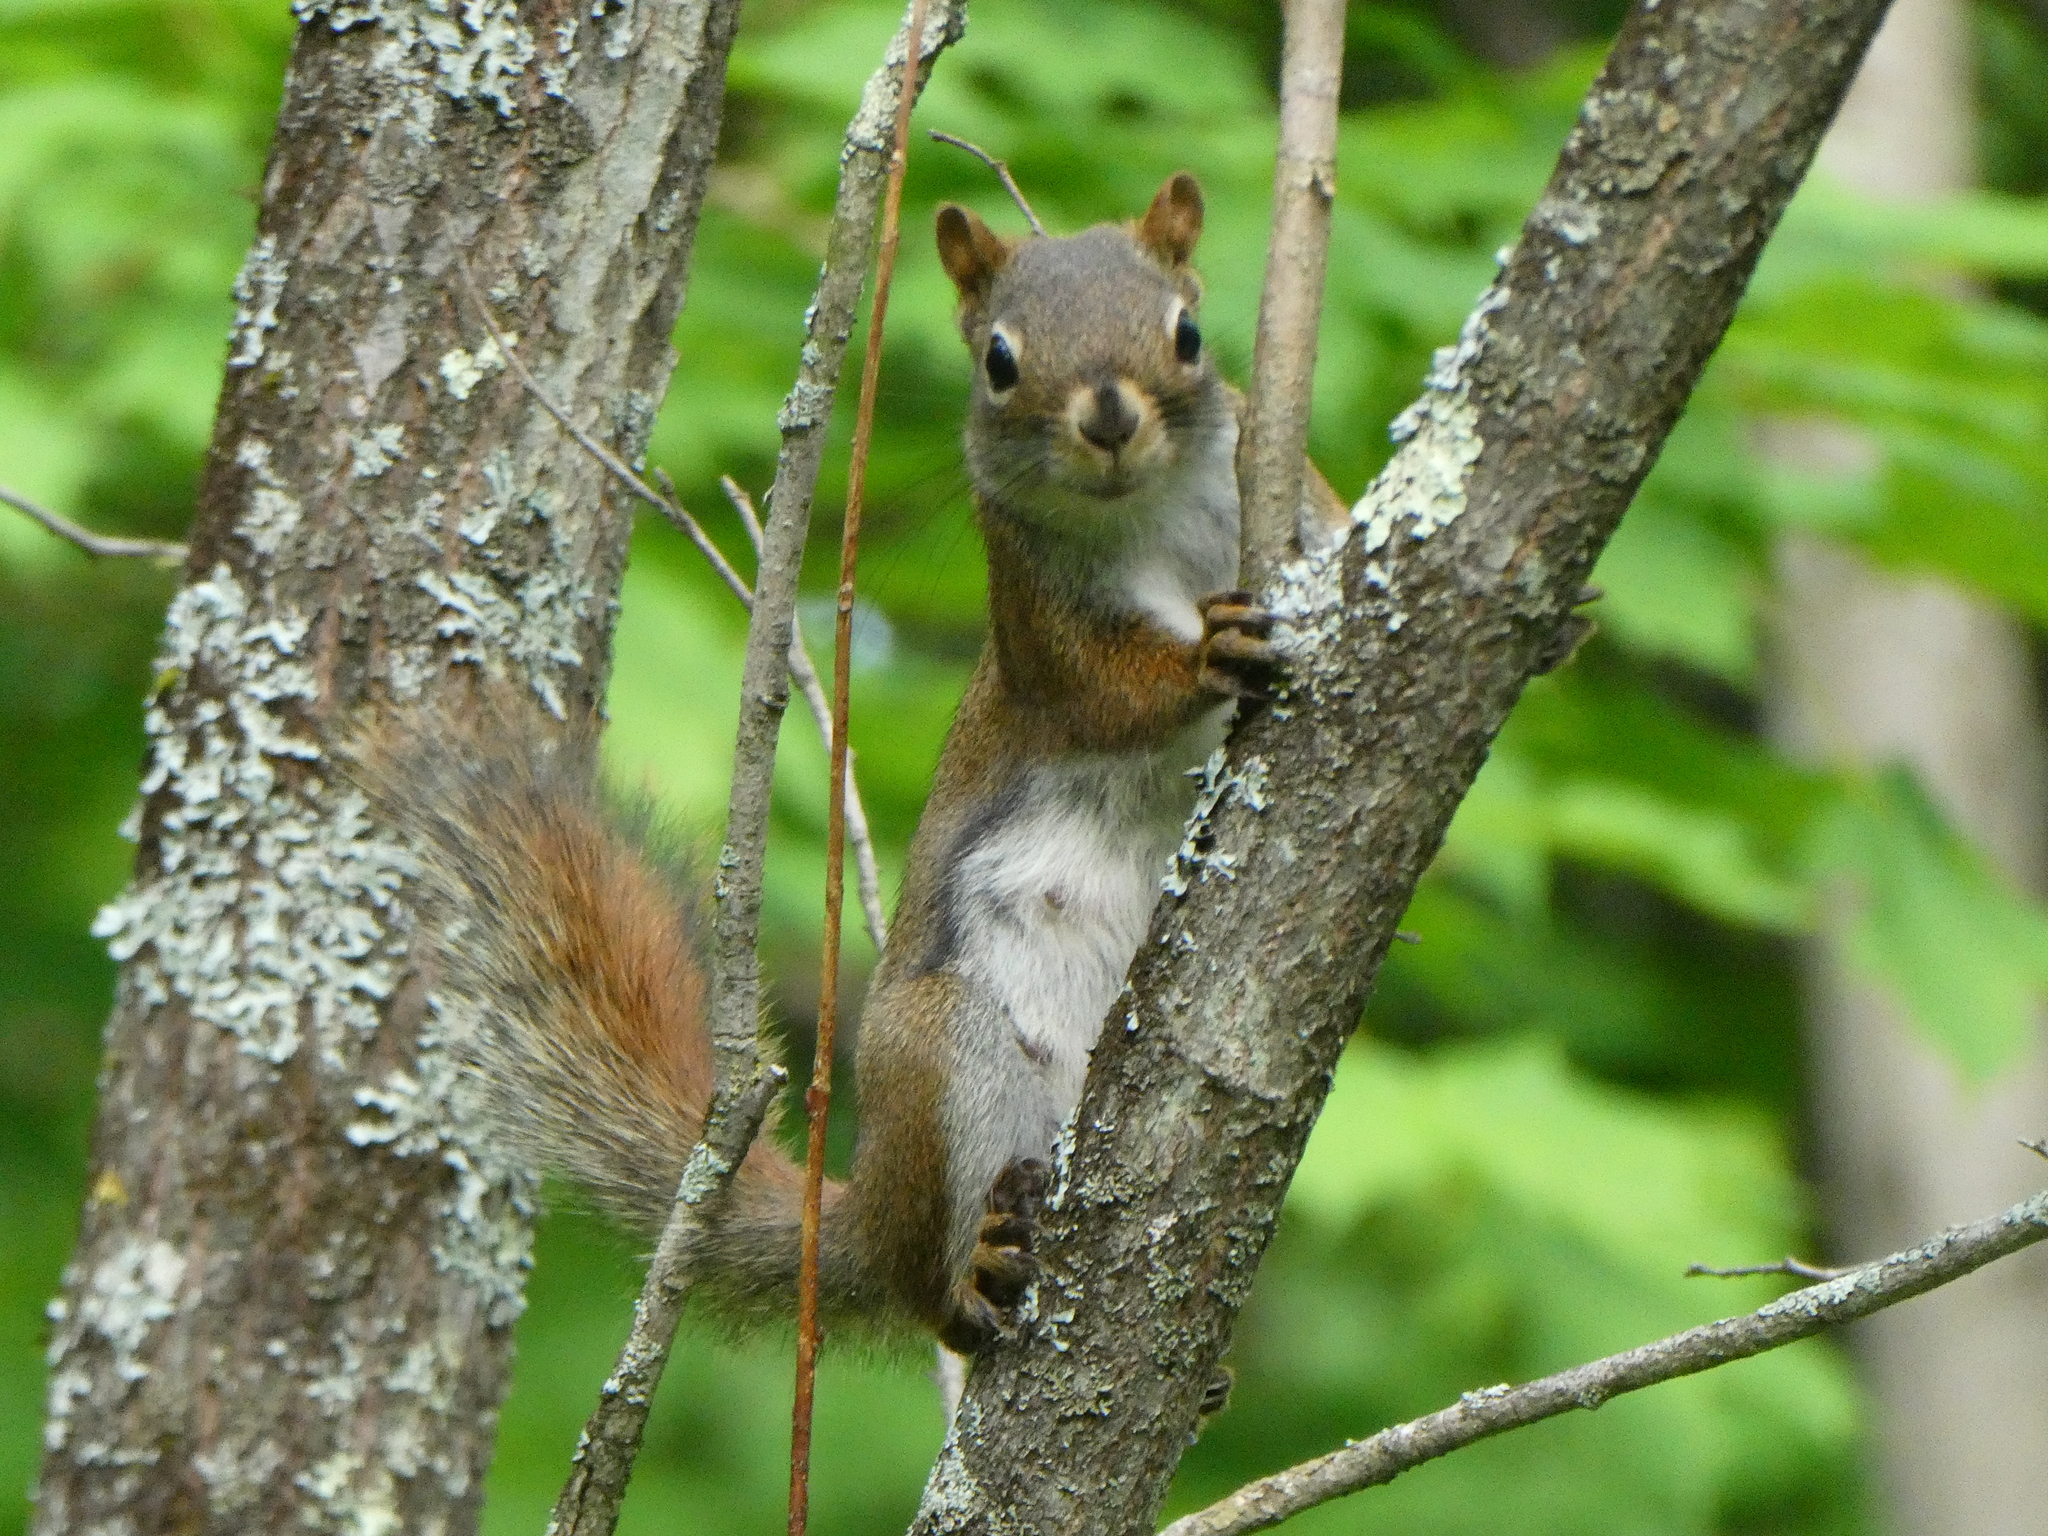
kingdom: Animalia
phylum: Chordata
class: Mammalia
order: Rodentia
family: Sciuridae
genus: Tamiasciurus
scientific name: Tamiasciurus hudsonicus
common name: Red squirrel
